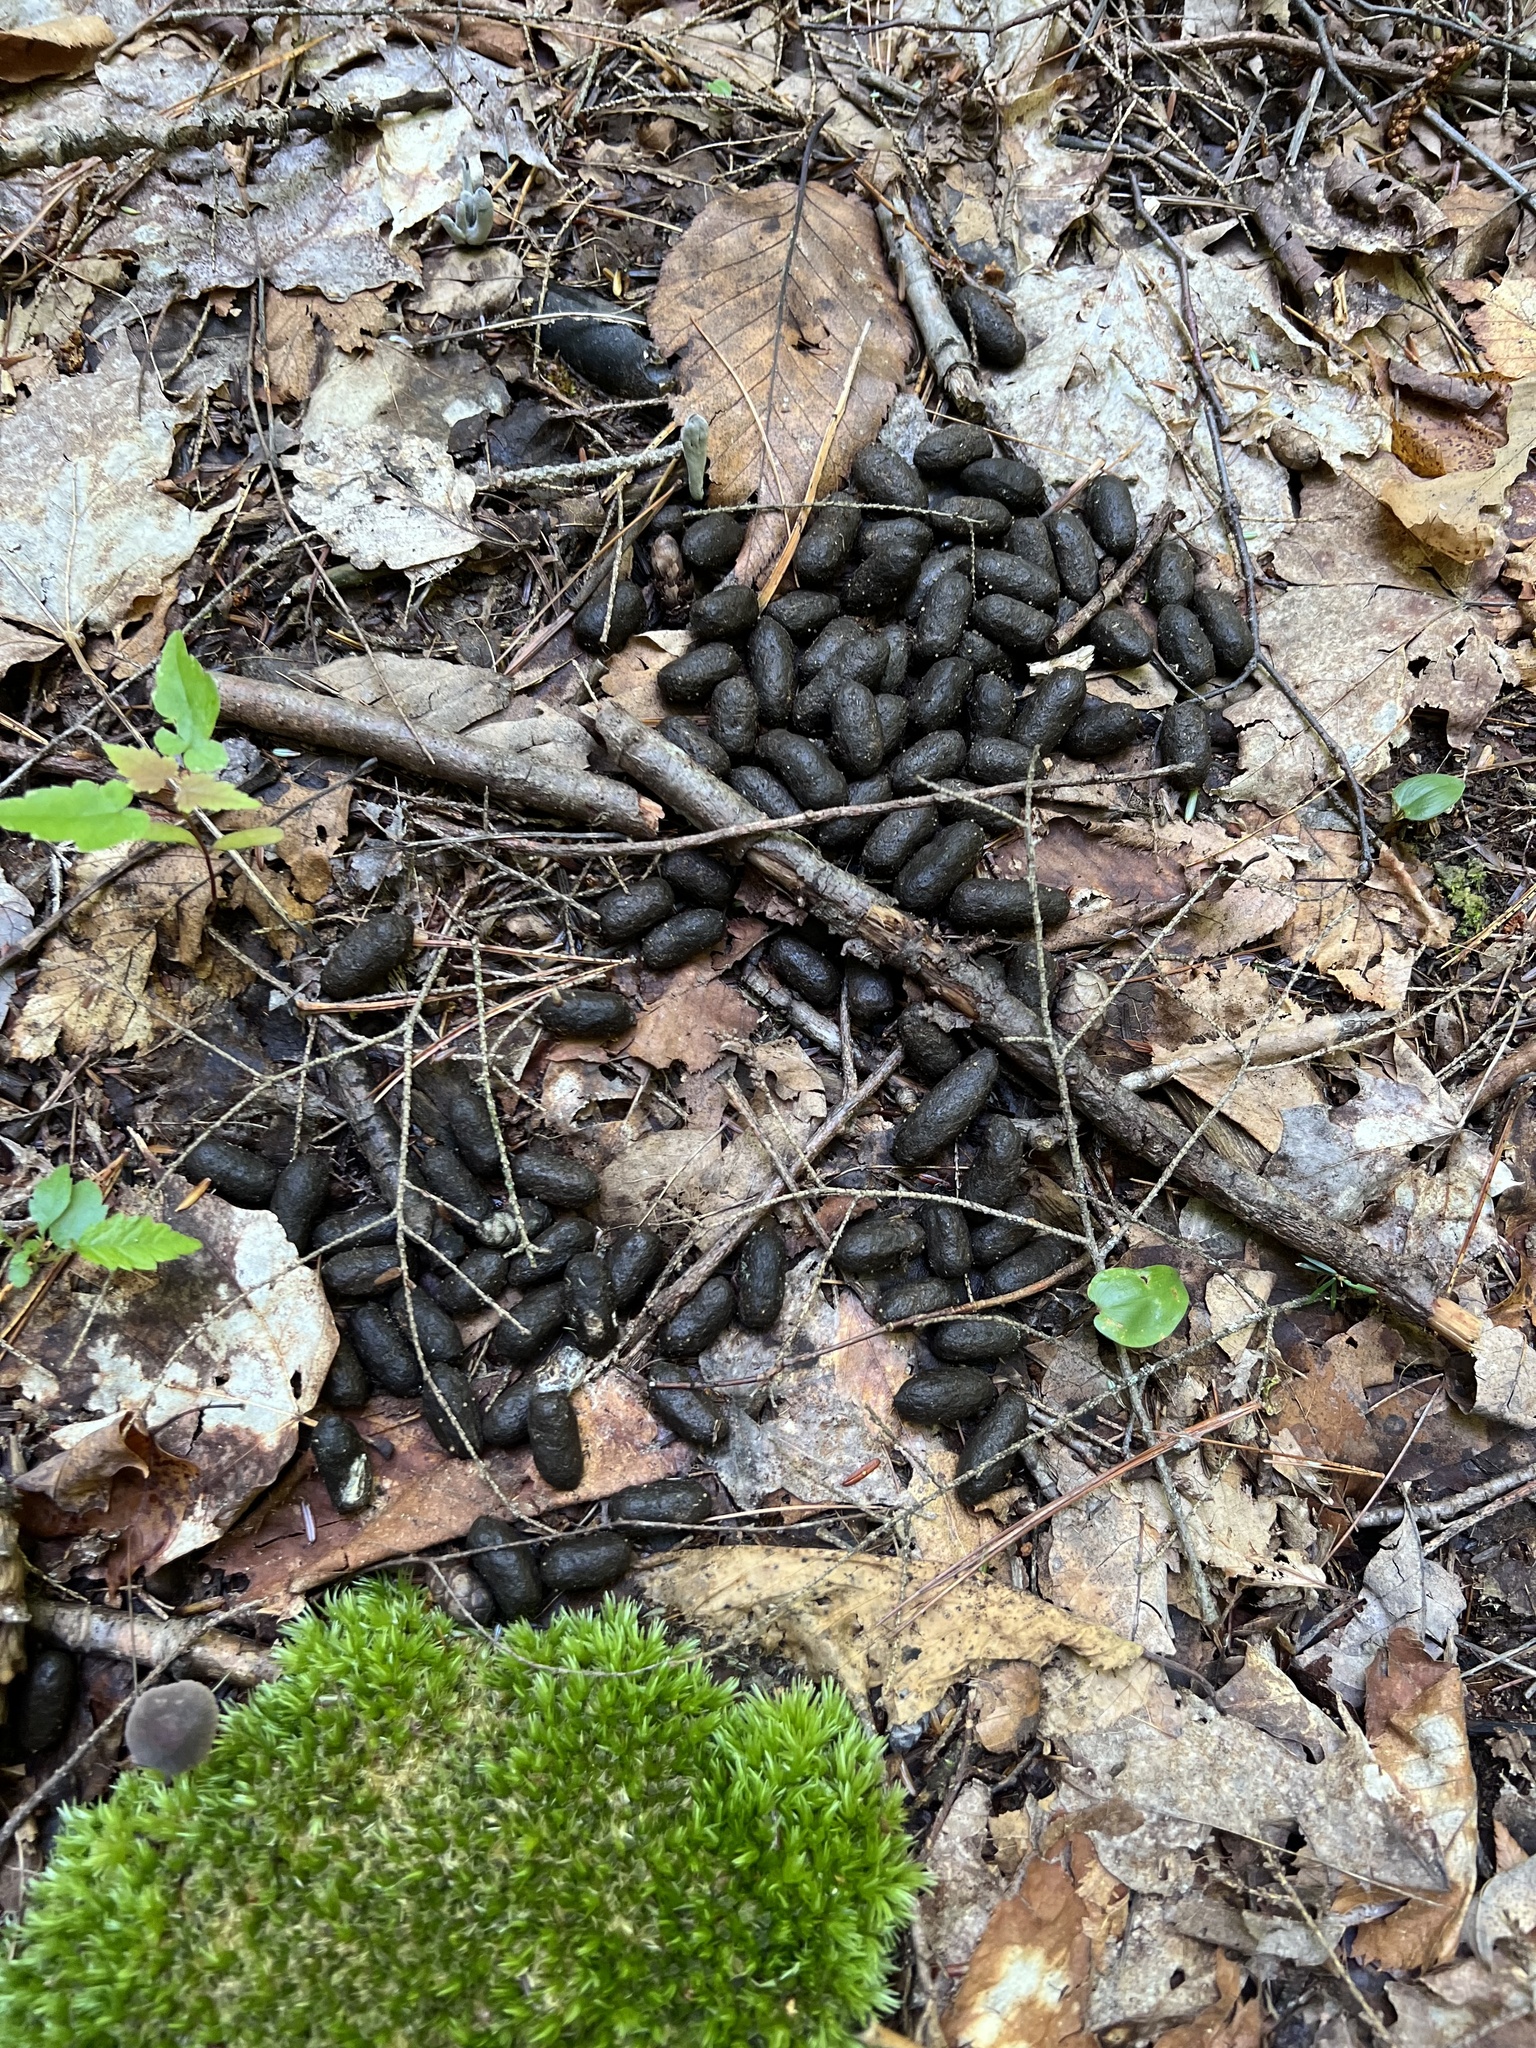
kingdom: Animalia
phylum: Chordata
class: Mammalia
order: Artiodactyla
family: Cervidae
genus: Odocoileus
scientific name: Odocoileus virginianus
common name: White-tailed deer
